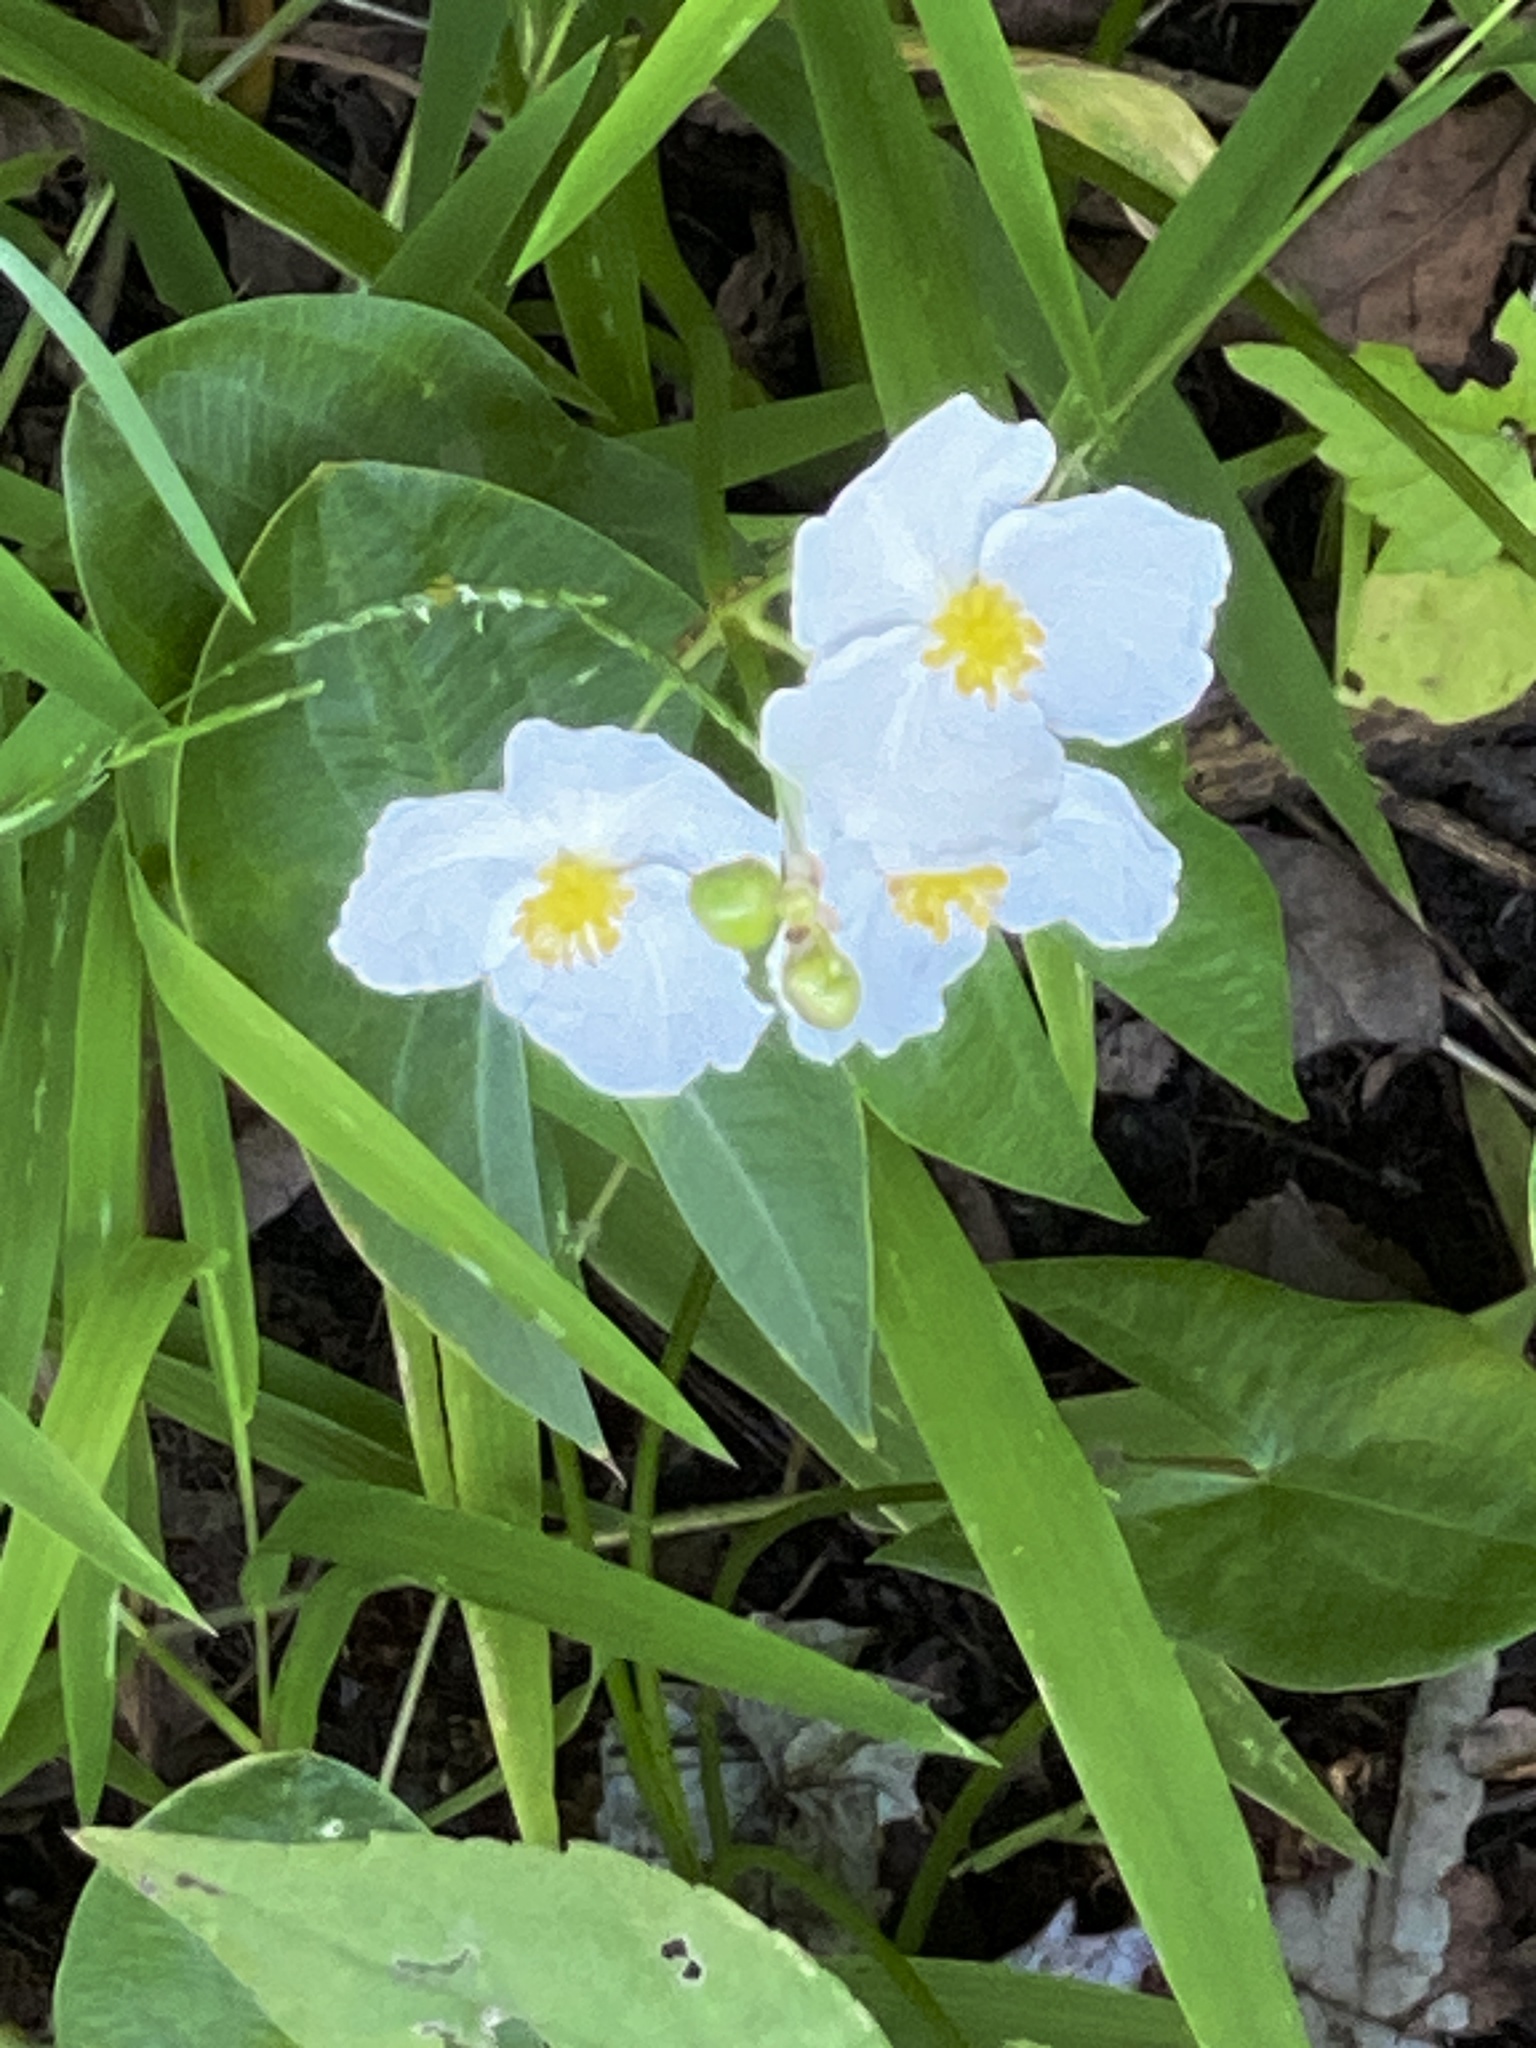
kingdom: Plantae
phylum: Tracheophyta
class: Liliopsida
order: Alismatales
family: Alismataceae
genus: Sagittaria
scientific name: Sagittaria latifolia
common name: Duck-potato
